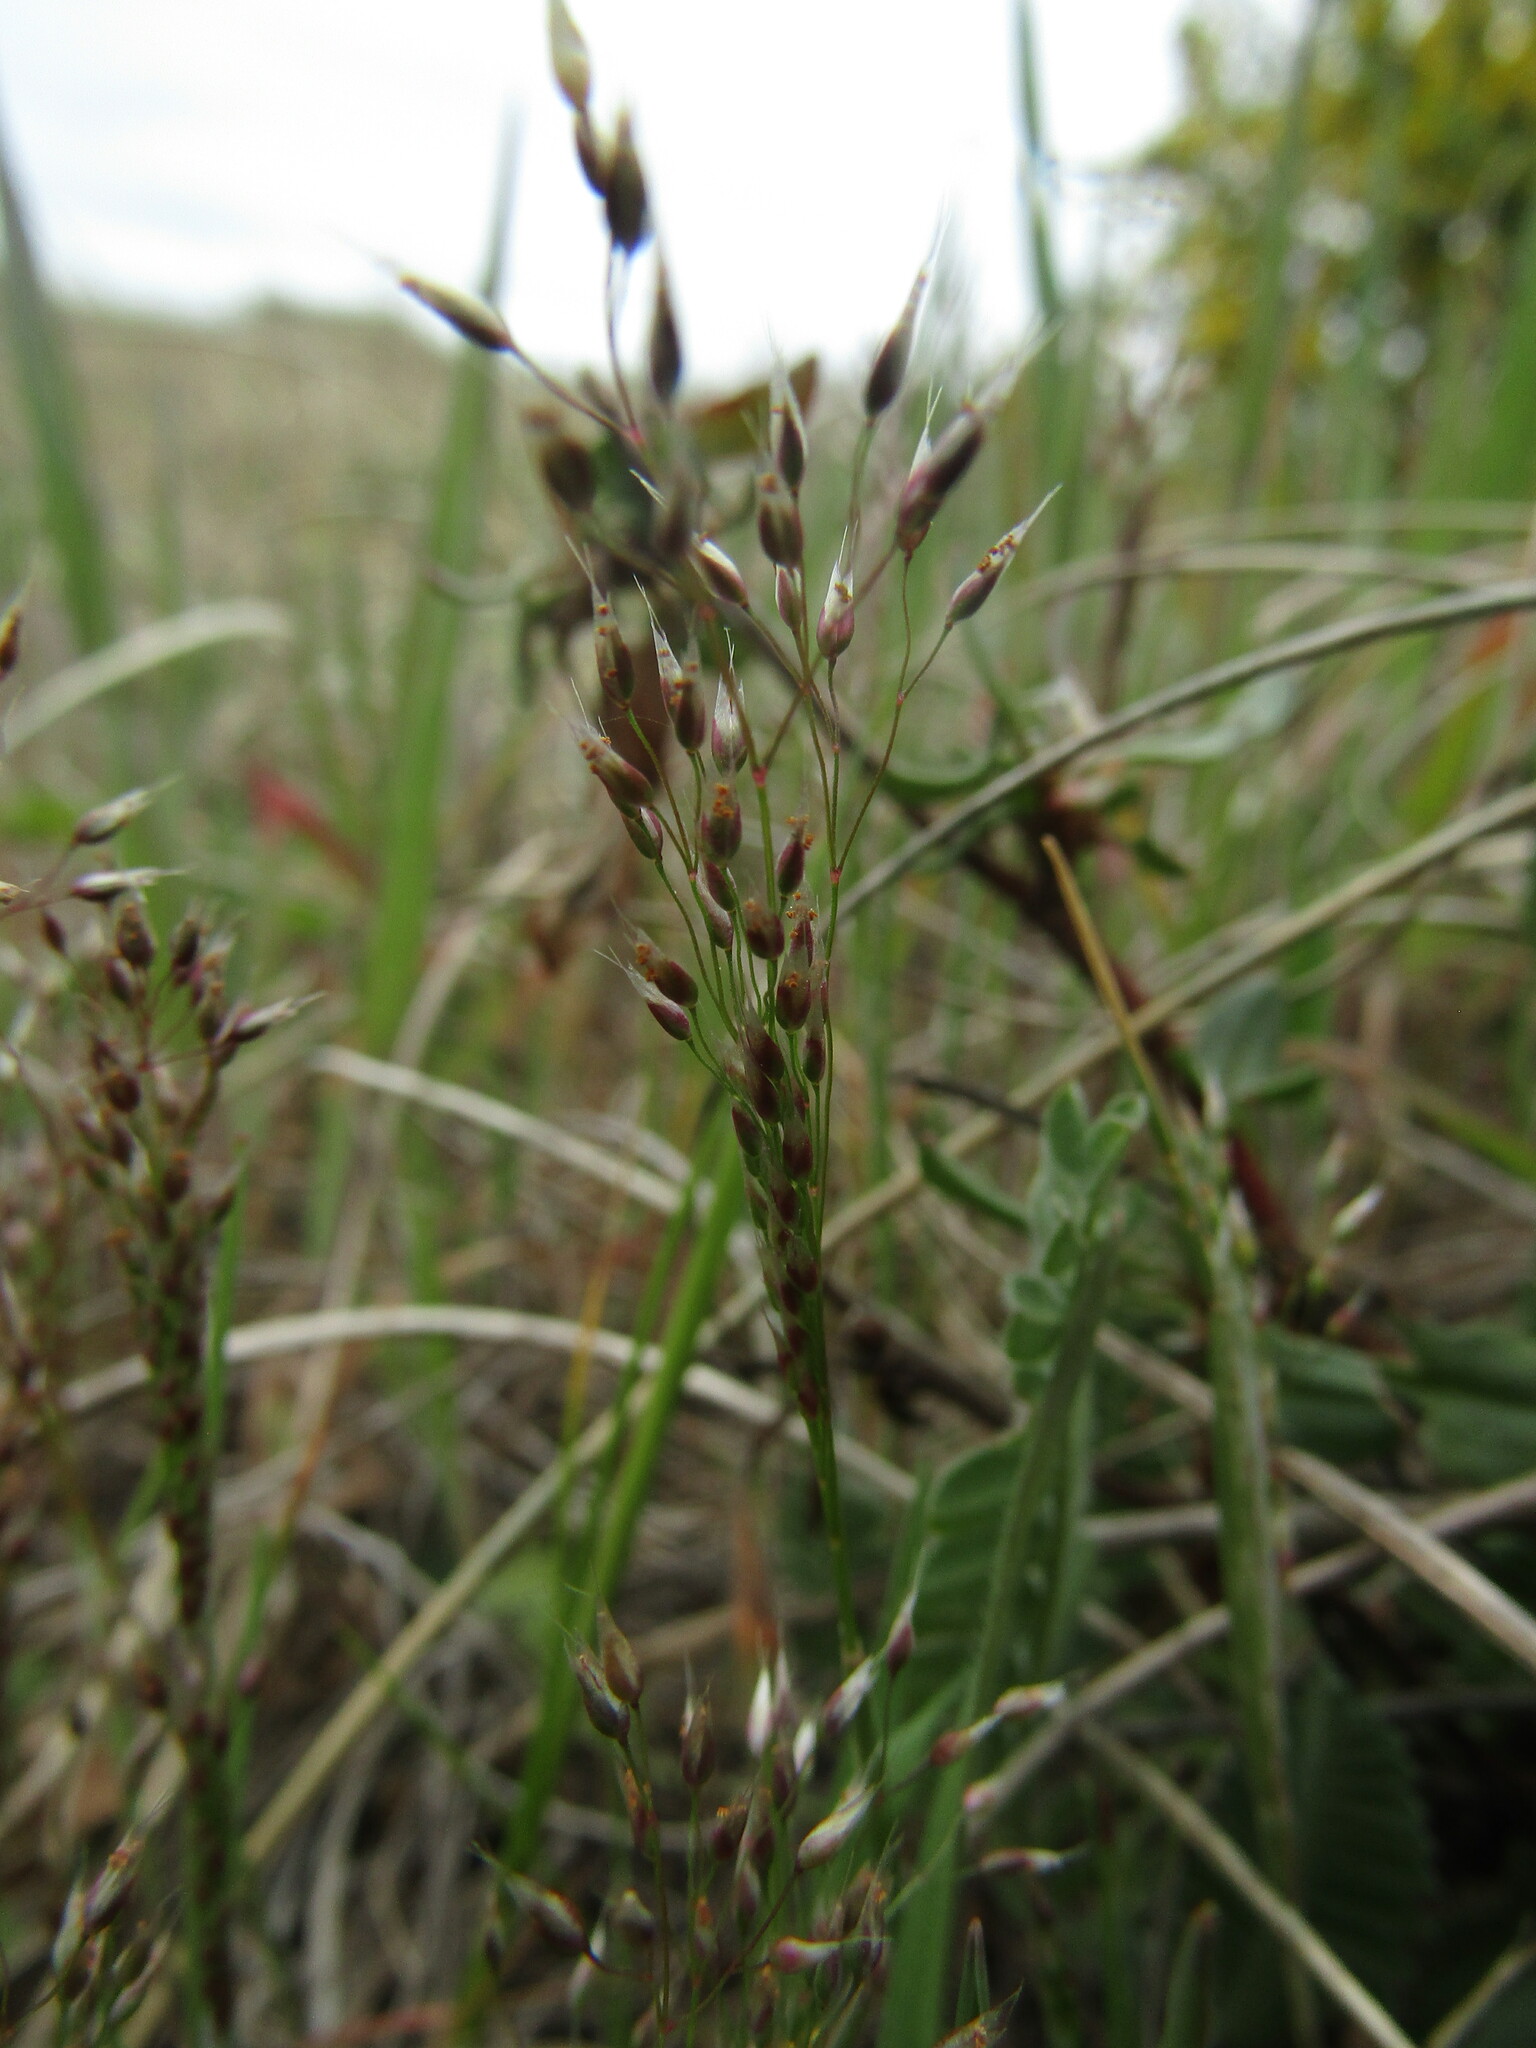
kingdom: Plantae
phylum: Tracheophyta
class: Liliopsida
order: Poales
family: Poaceae
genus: Aira
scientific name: Aira caryophyllea
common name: Silver hairgrass
